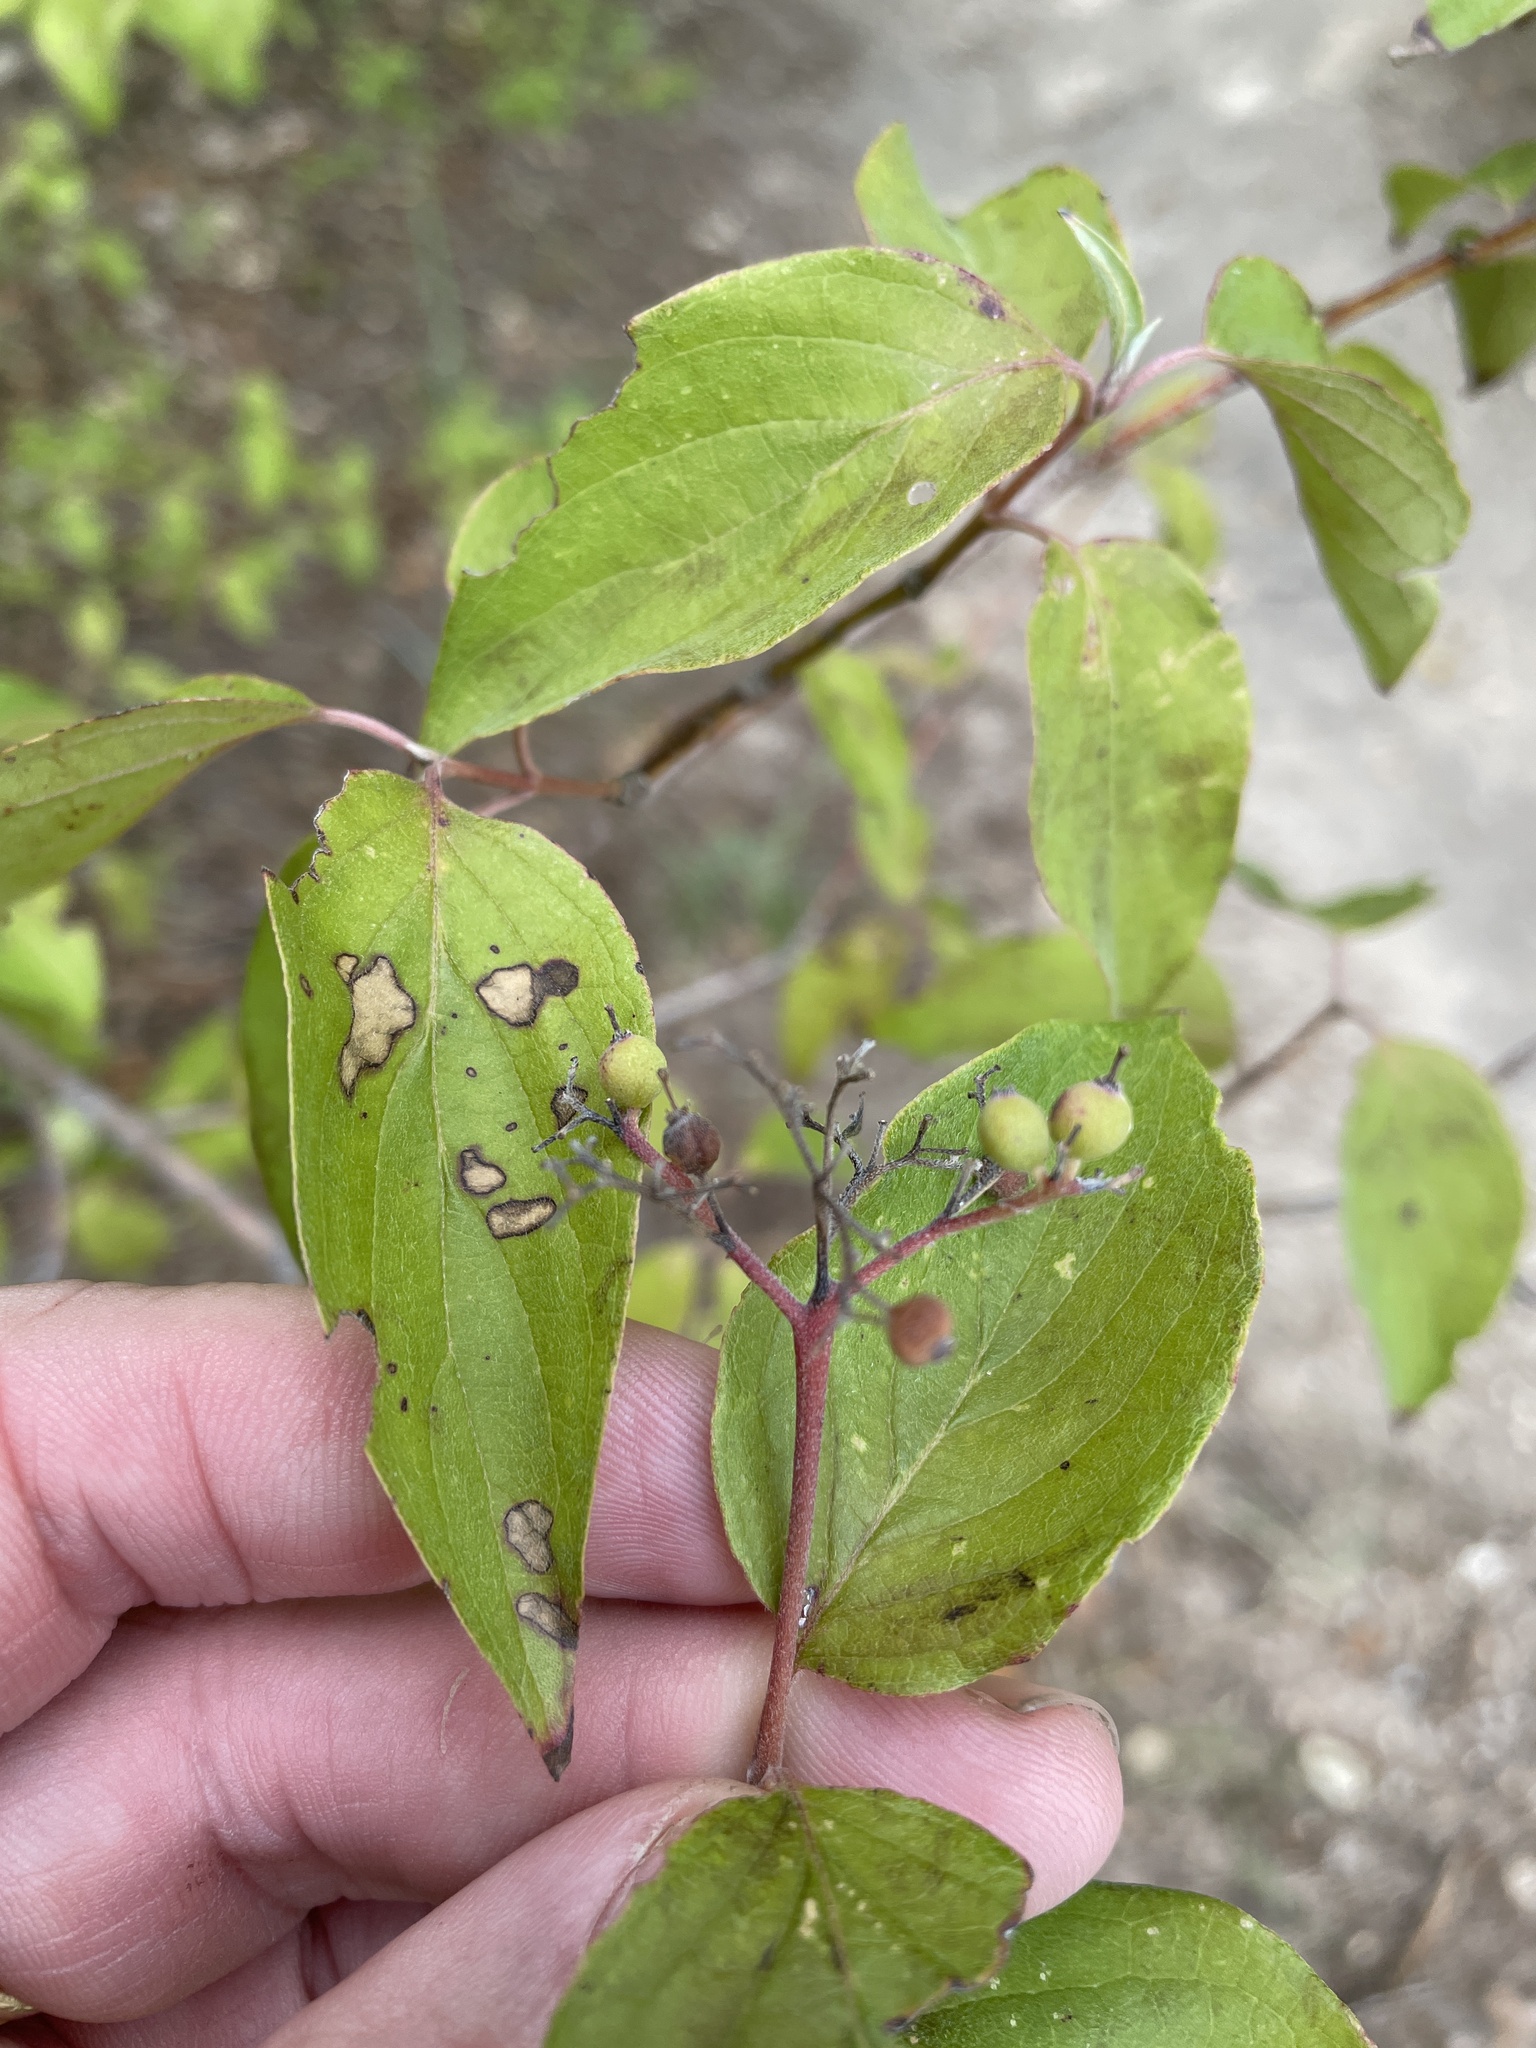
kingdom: Plantae
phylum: Tracheophyta
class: Magnoliopsida
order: Cornales
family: Cornaceae
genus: Cornus
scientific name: Cornus drummondii
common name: Rough-leaf dogwood
